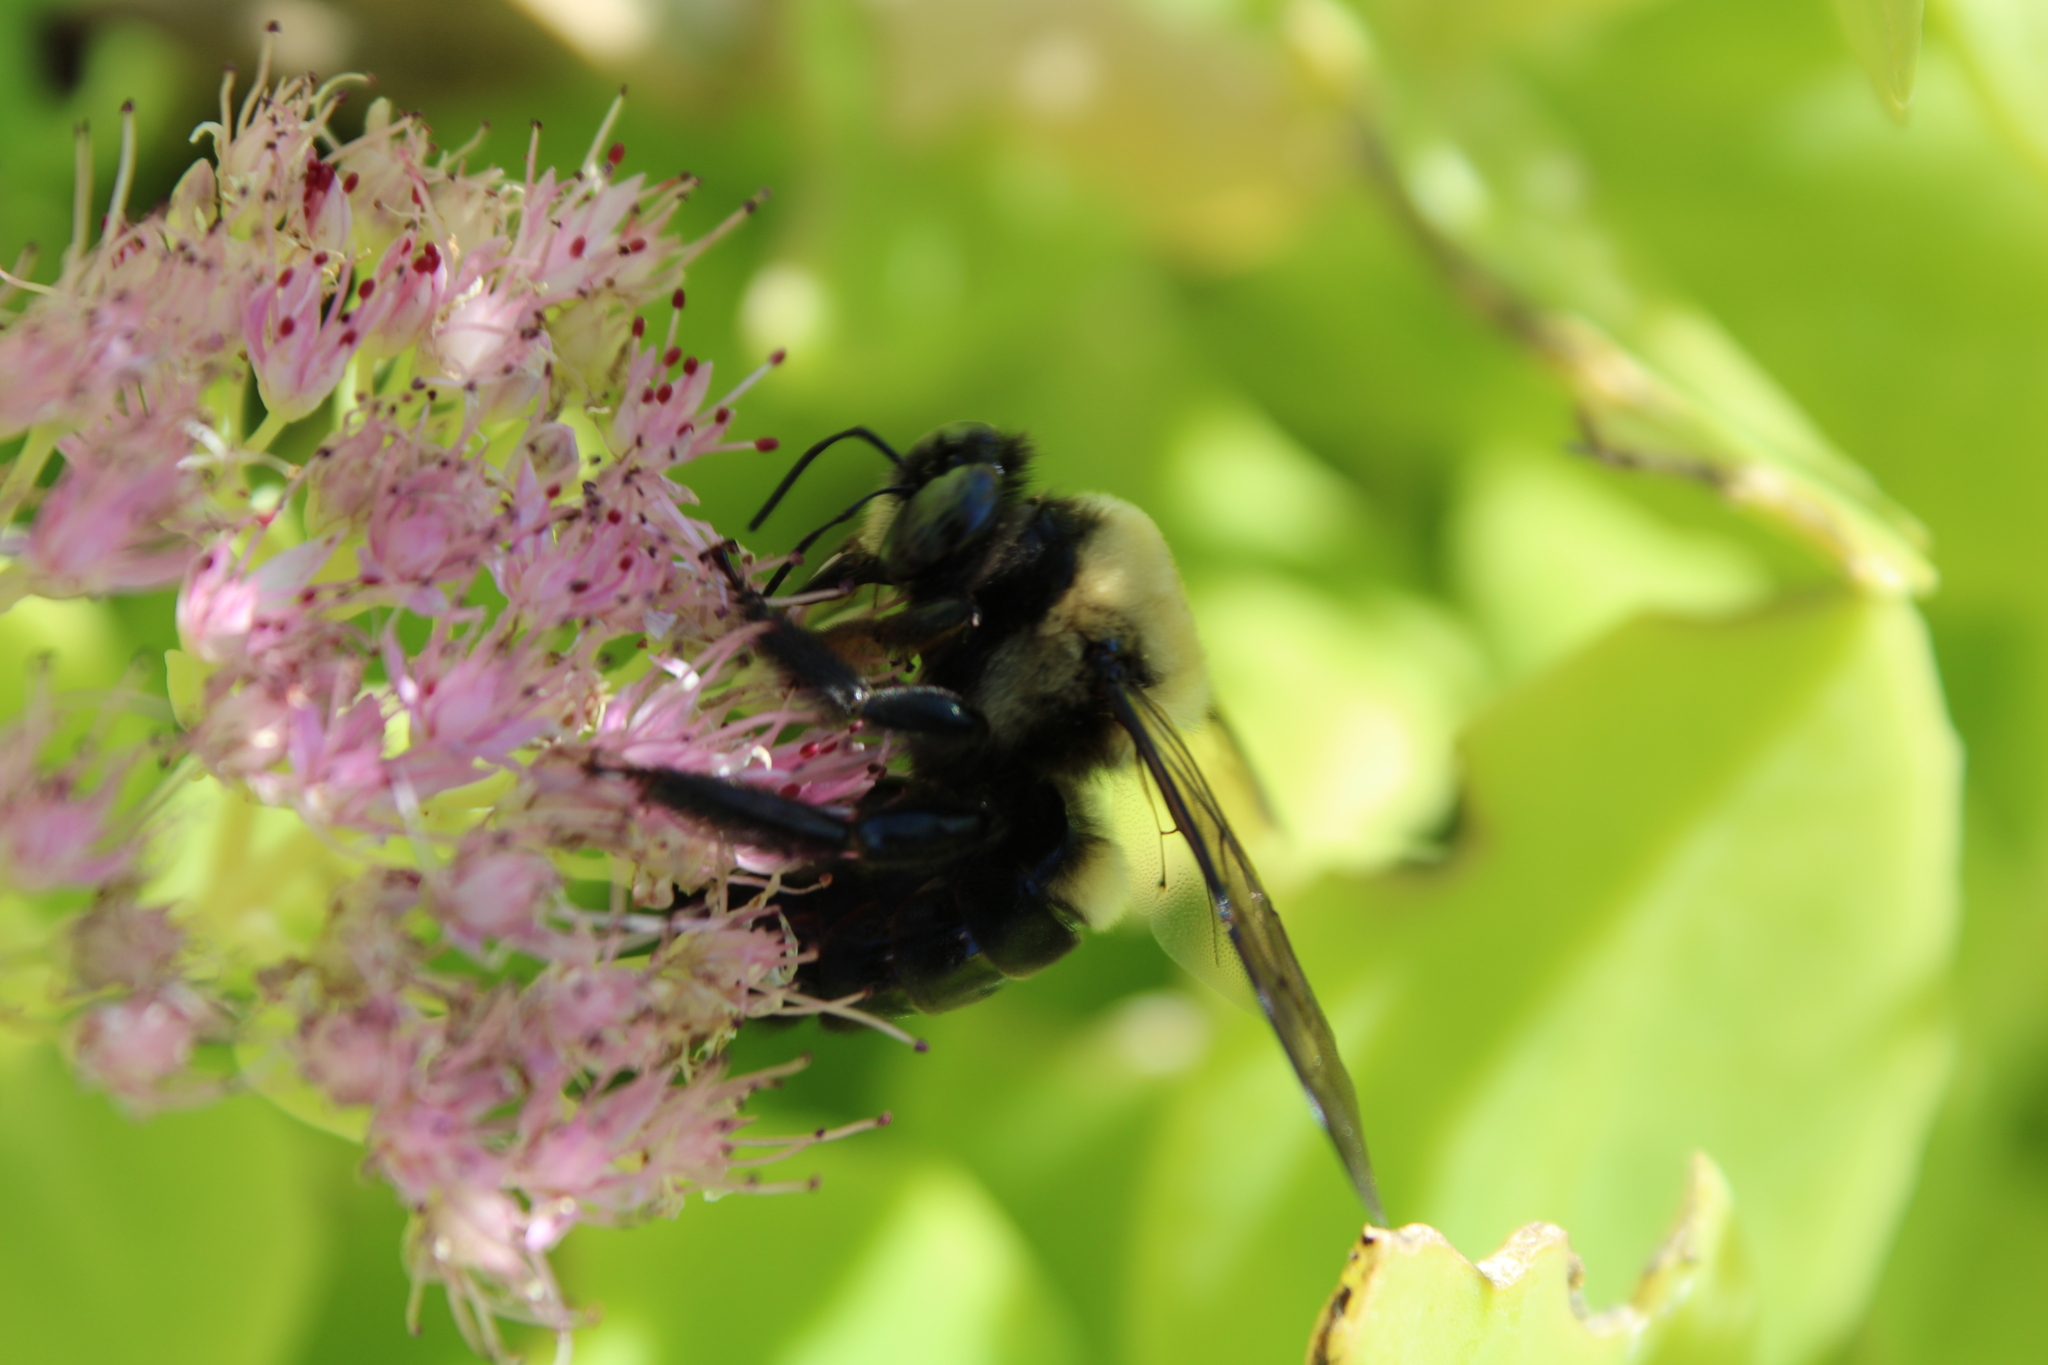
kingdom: Animalia
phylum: Arthropoda
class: Insecta
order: Hymenoptera
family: Apidae
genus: Xylocopa
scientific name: Xylocopa virginica
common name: Carpenter bee
